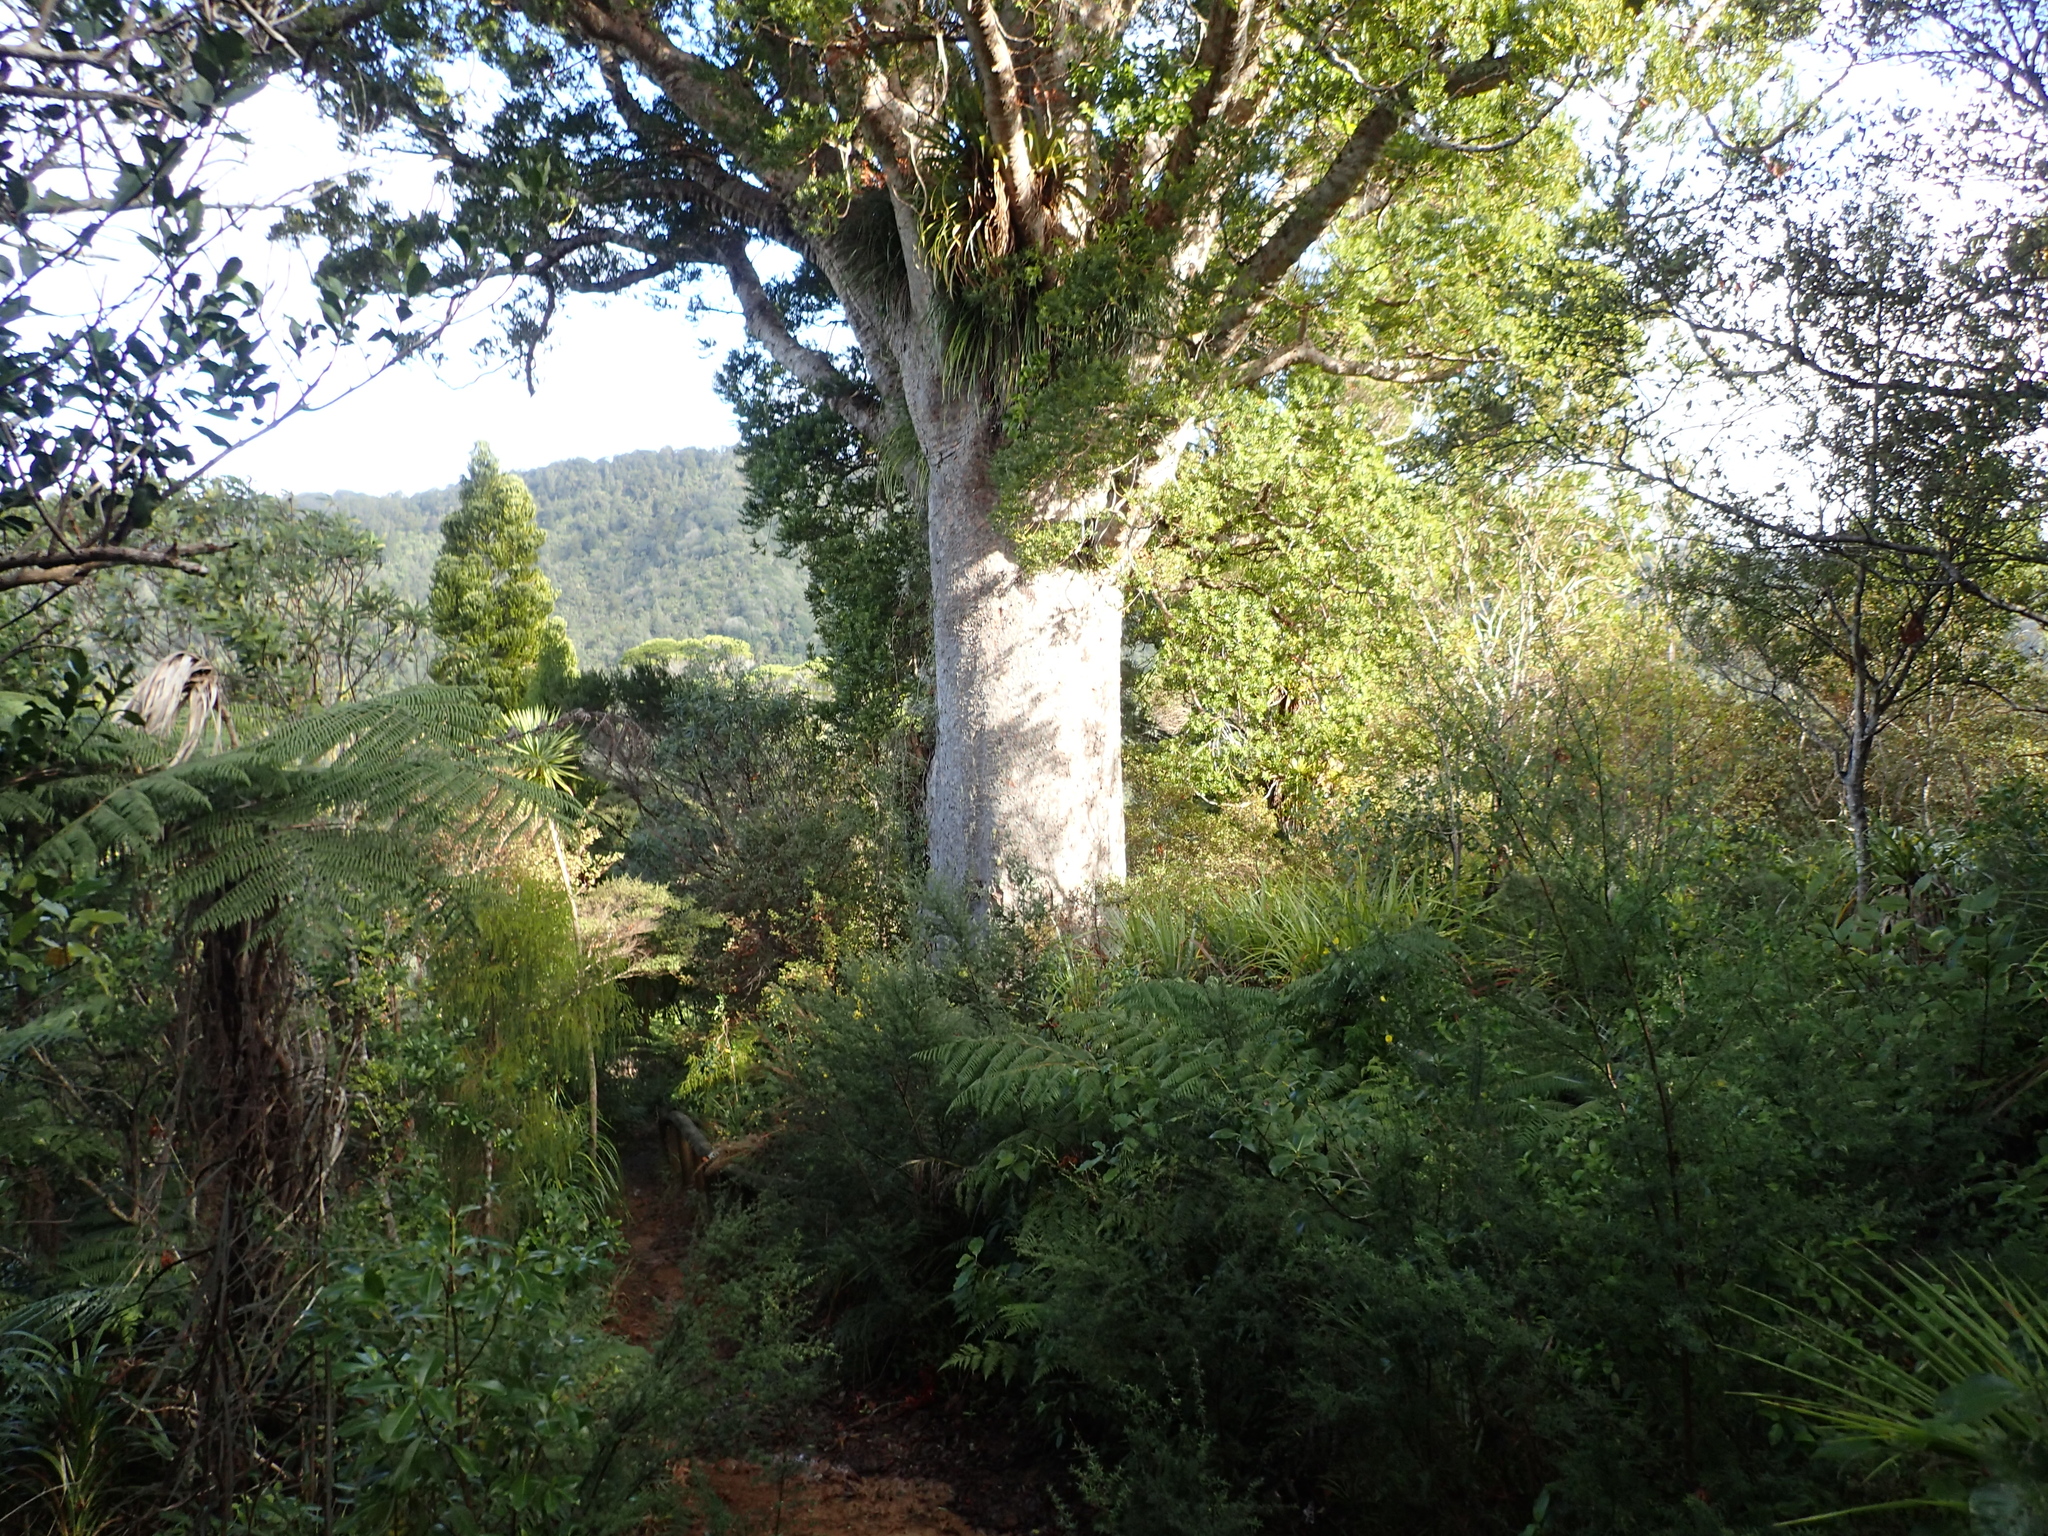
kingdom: Plantae
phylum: Tracheophyta
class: Pinopsida
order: Pinales
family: Araucariaceae
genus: Agathis
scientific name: Agathis australis
